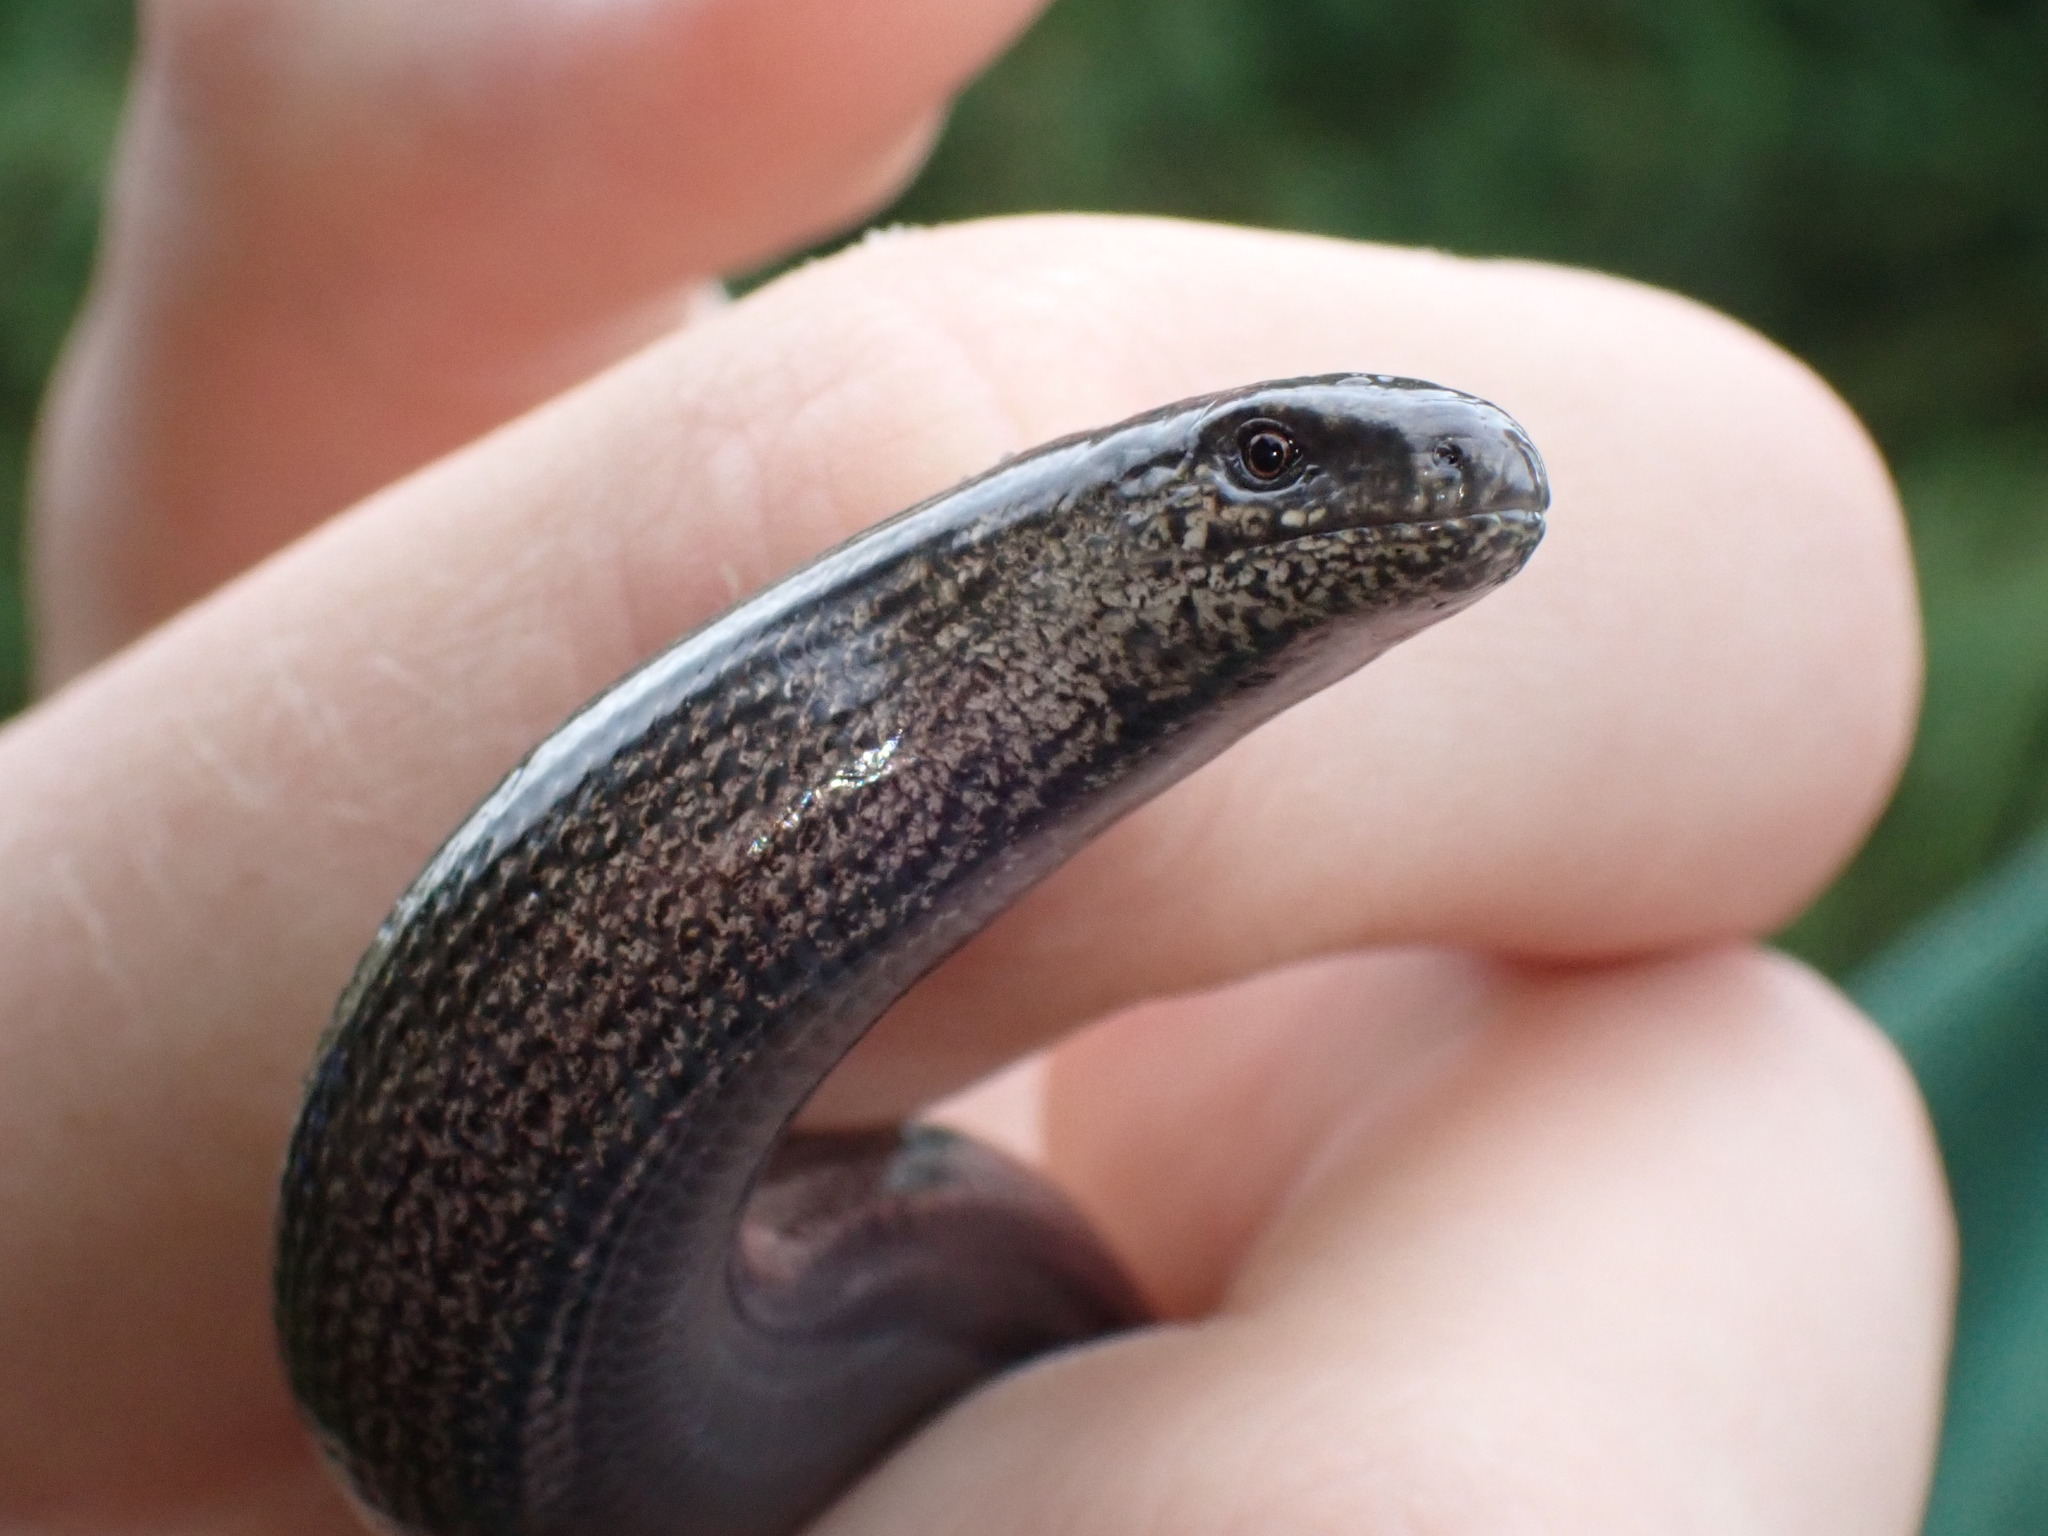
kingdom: Animalia
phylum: Chordata
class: Squamata
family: Anguidae
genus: Anguis
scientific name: Anguis fragilis
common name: Slow worm
